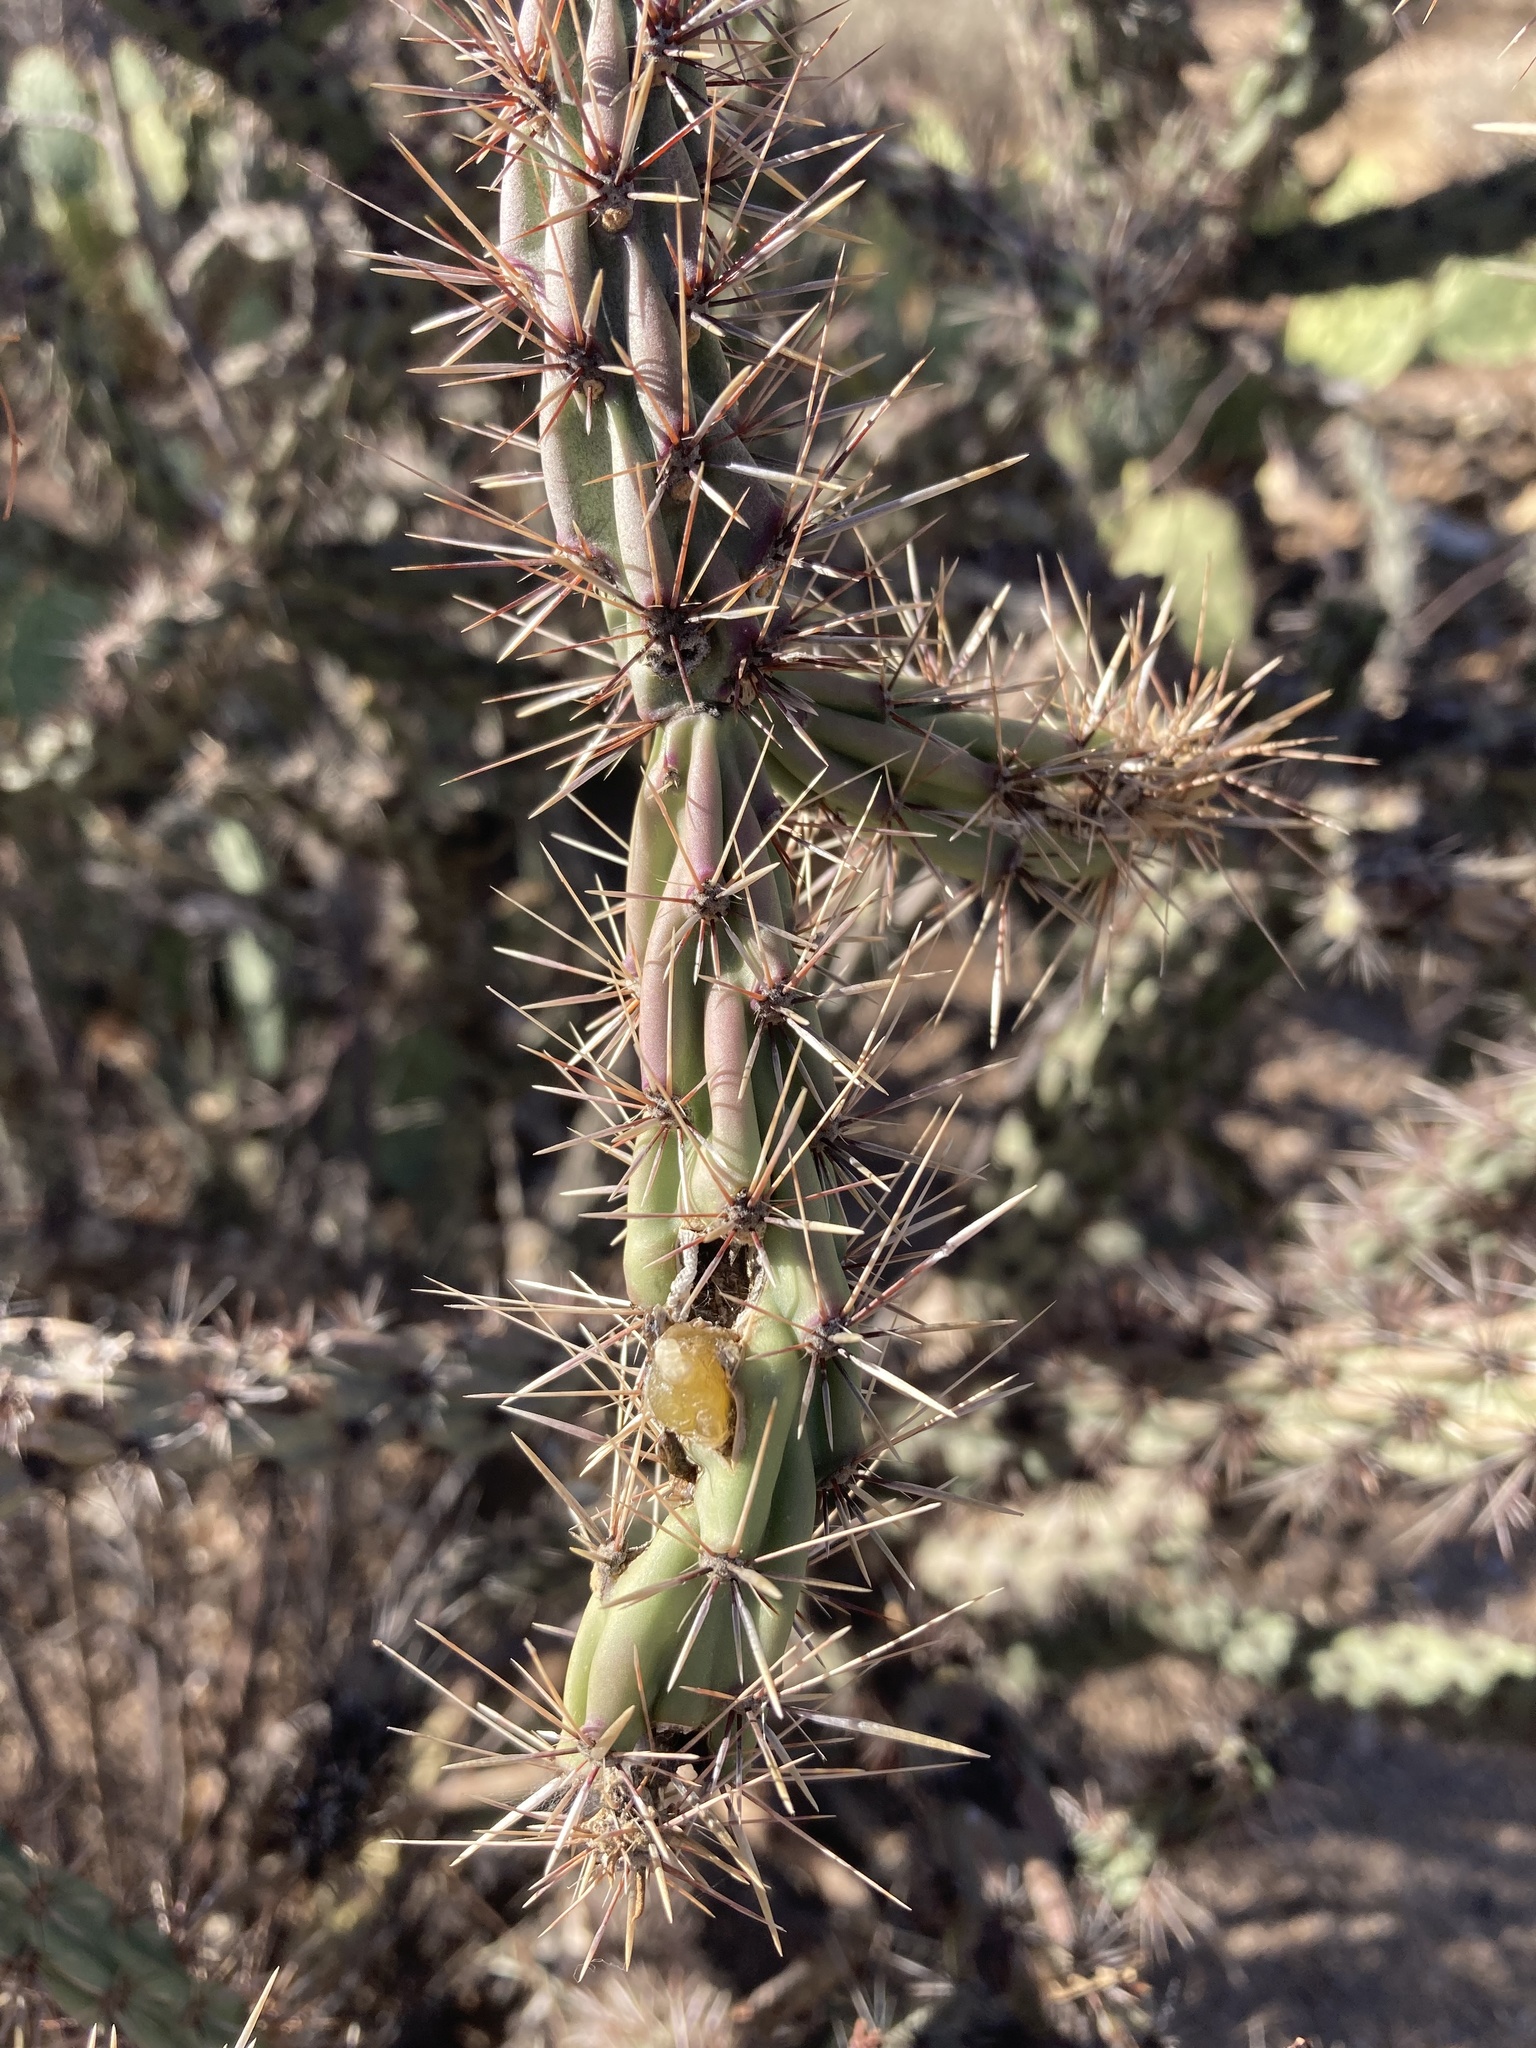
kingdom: Plantae
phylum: Tracheophyta
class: Magnoliopsida
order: Caryophyllales
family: Cactaceae
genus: Cylindropuntia
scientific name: Cylindropuntia acanthocarpa
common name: Buckhorn cholla
